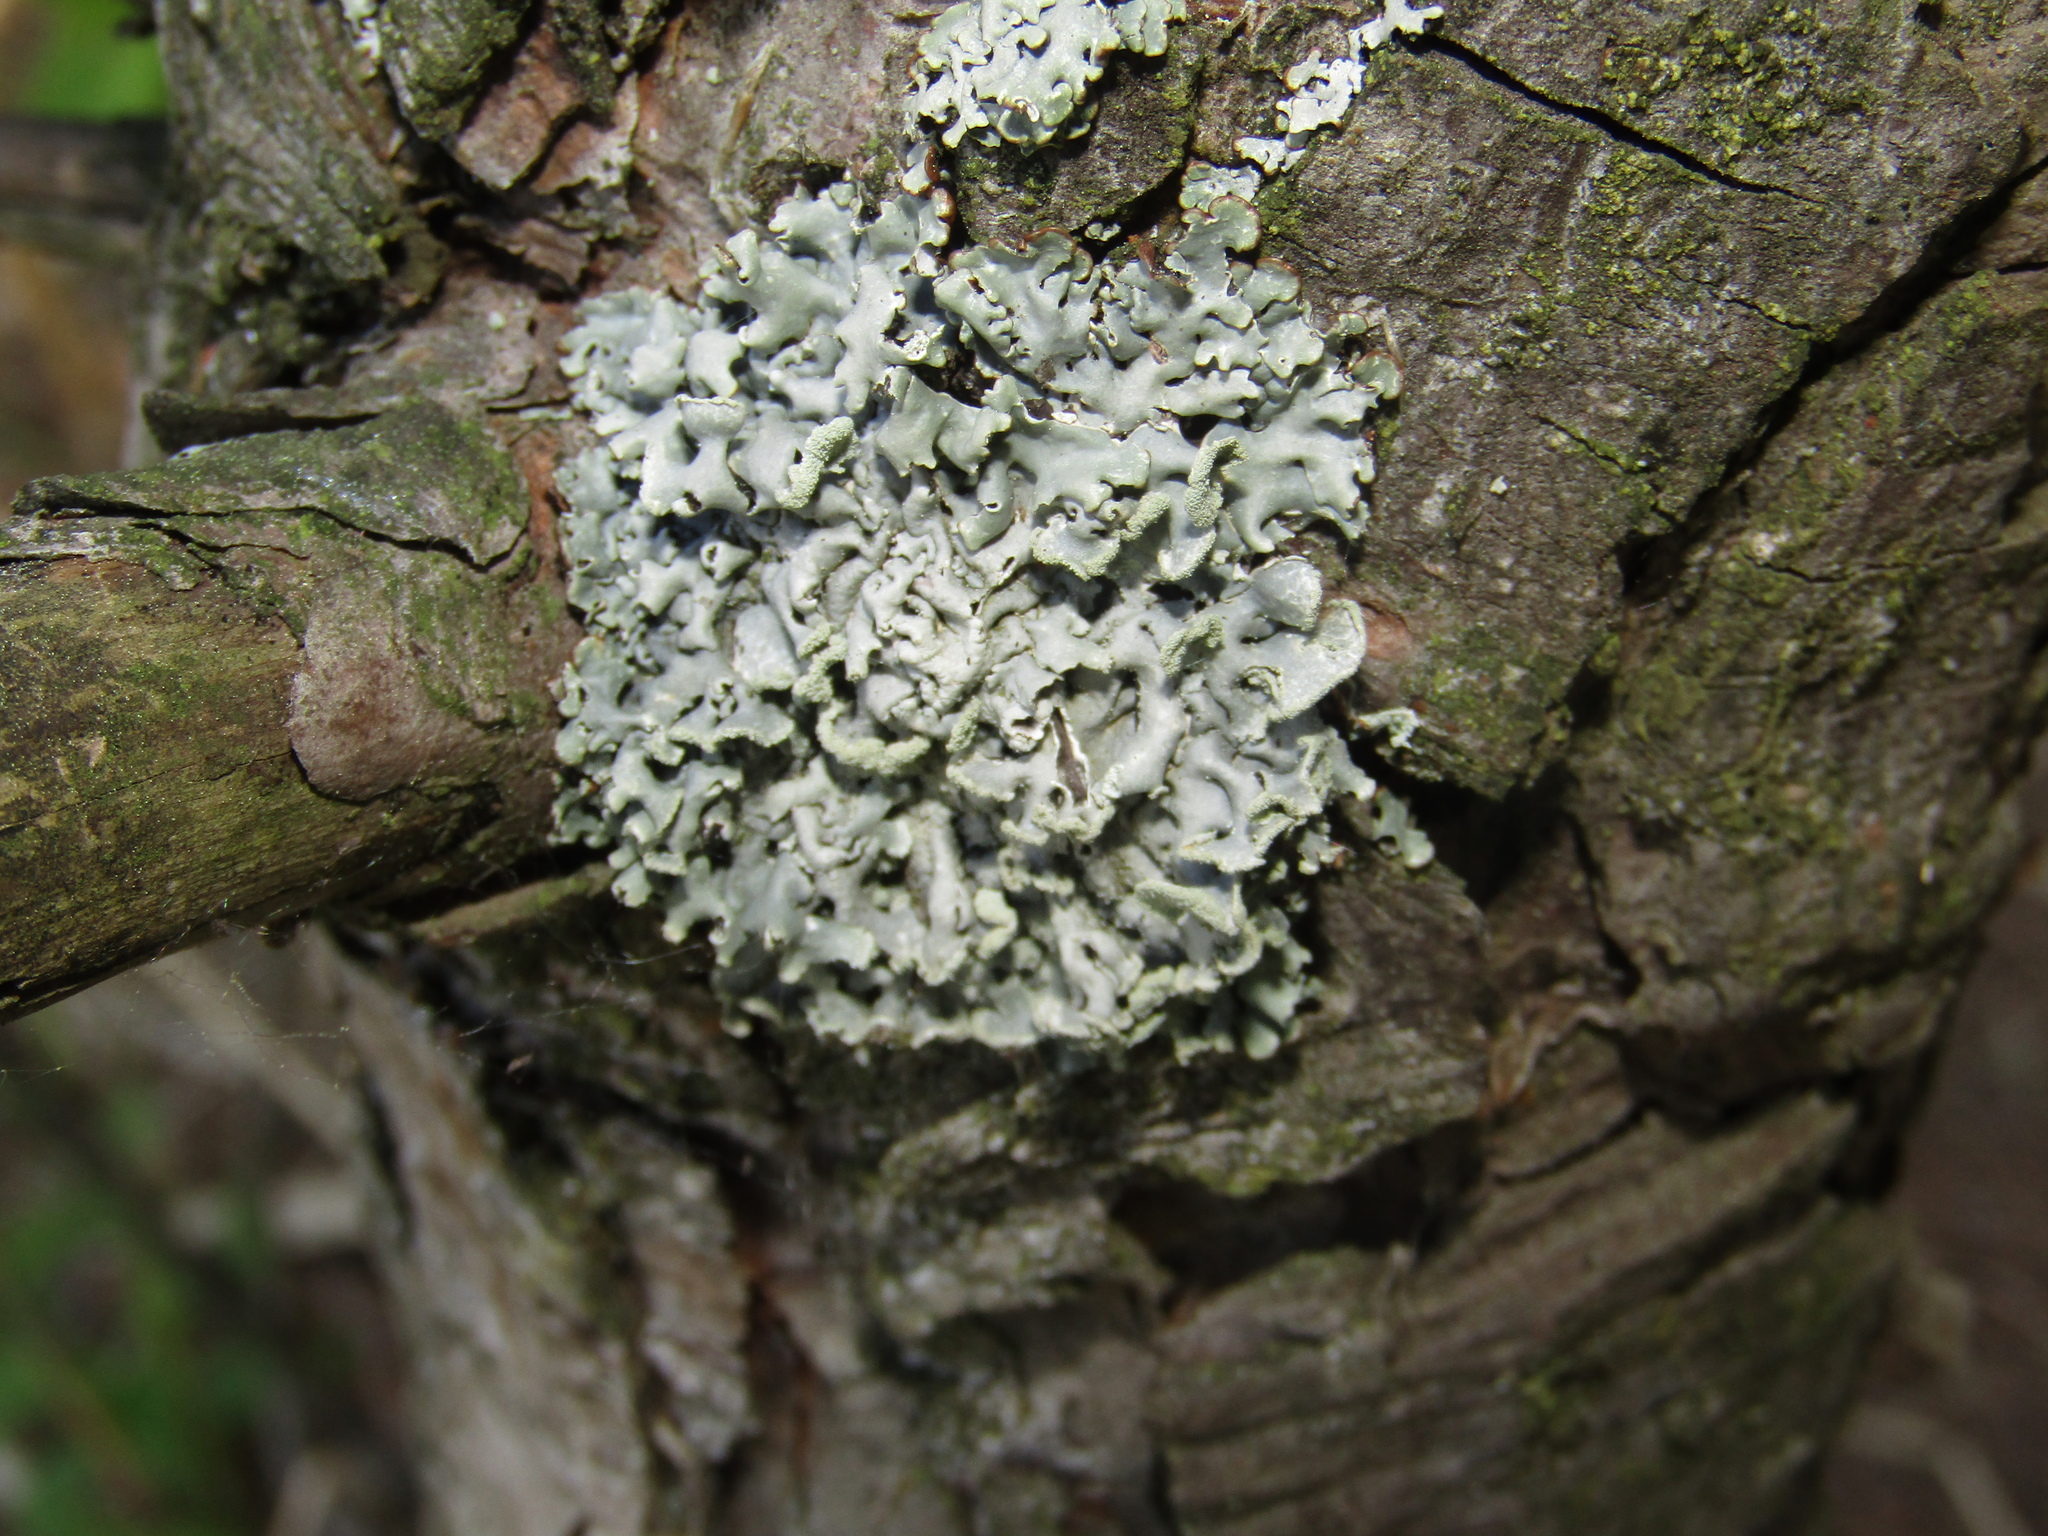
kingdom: Fungi
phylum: Ascomycota
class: Lecanoromycetes
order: Lecanorales
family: Parmeliaceae
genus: Hypogymnia
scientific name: Hypogymnia physodes
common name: Dark crottle
